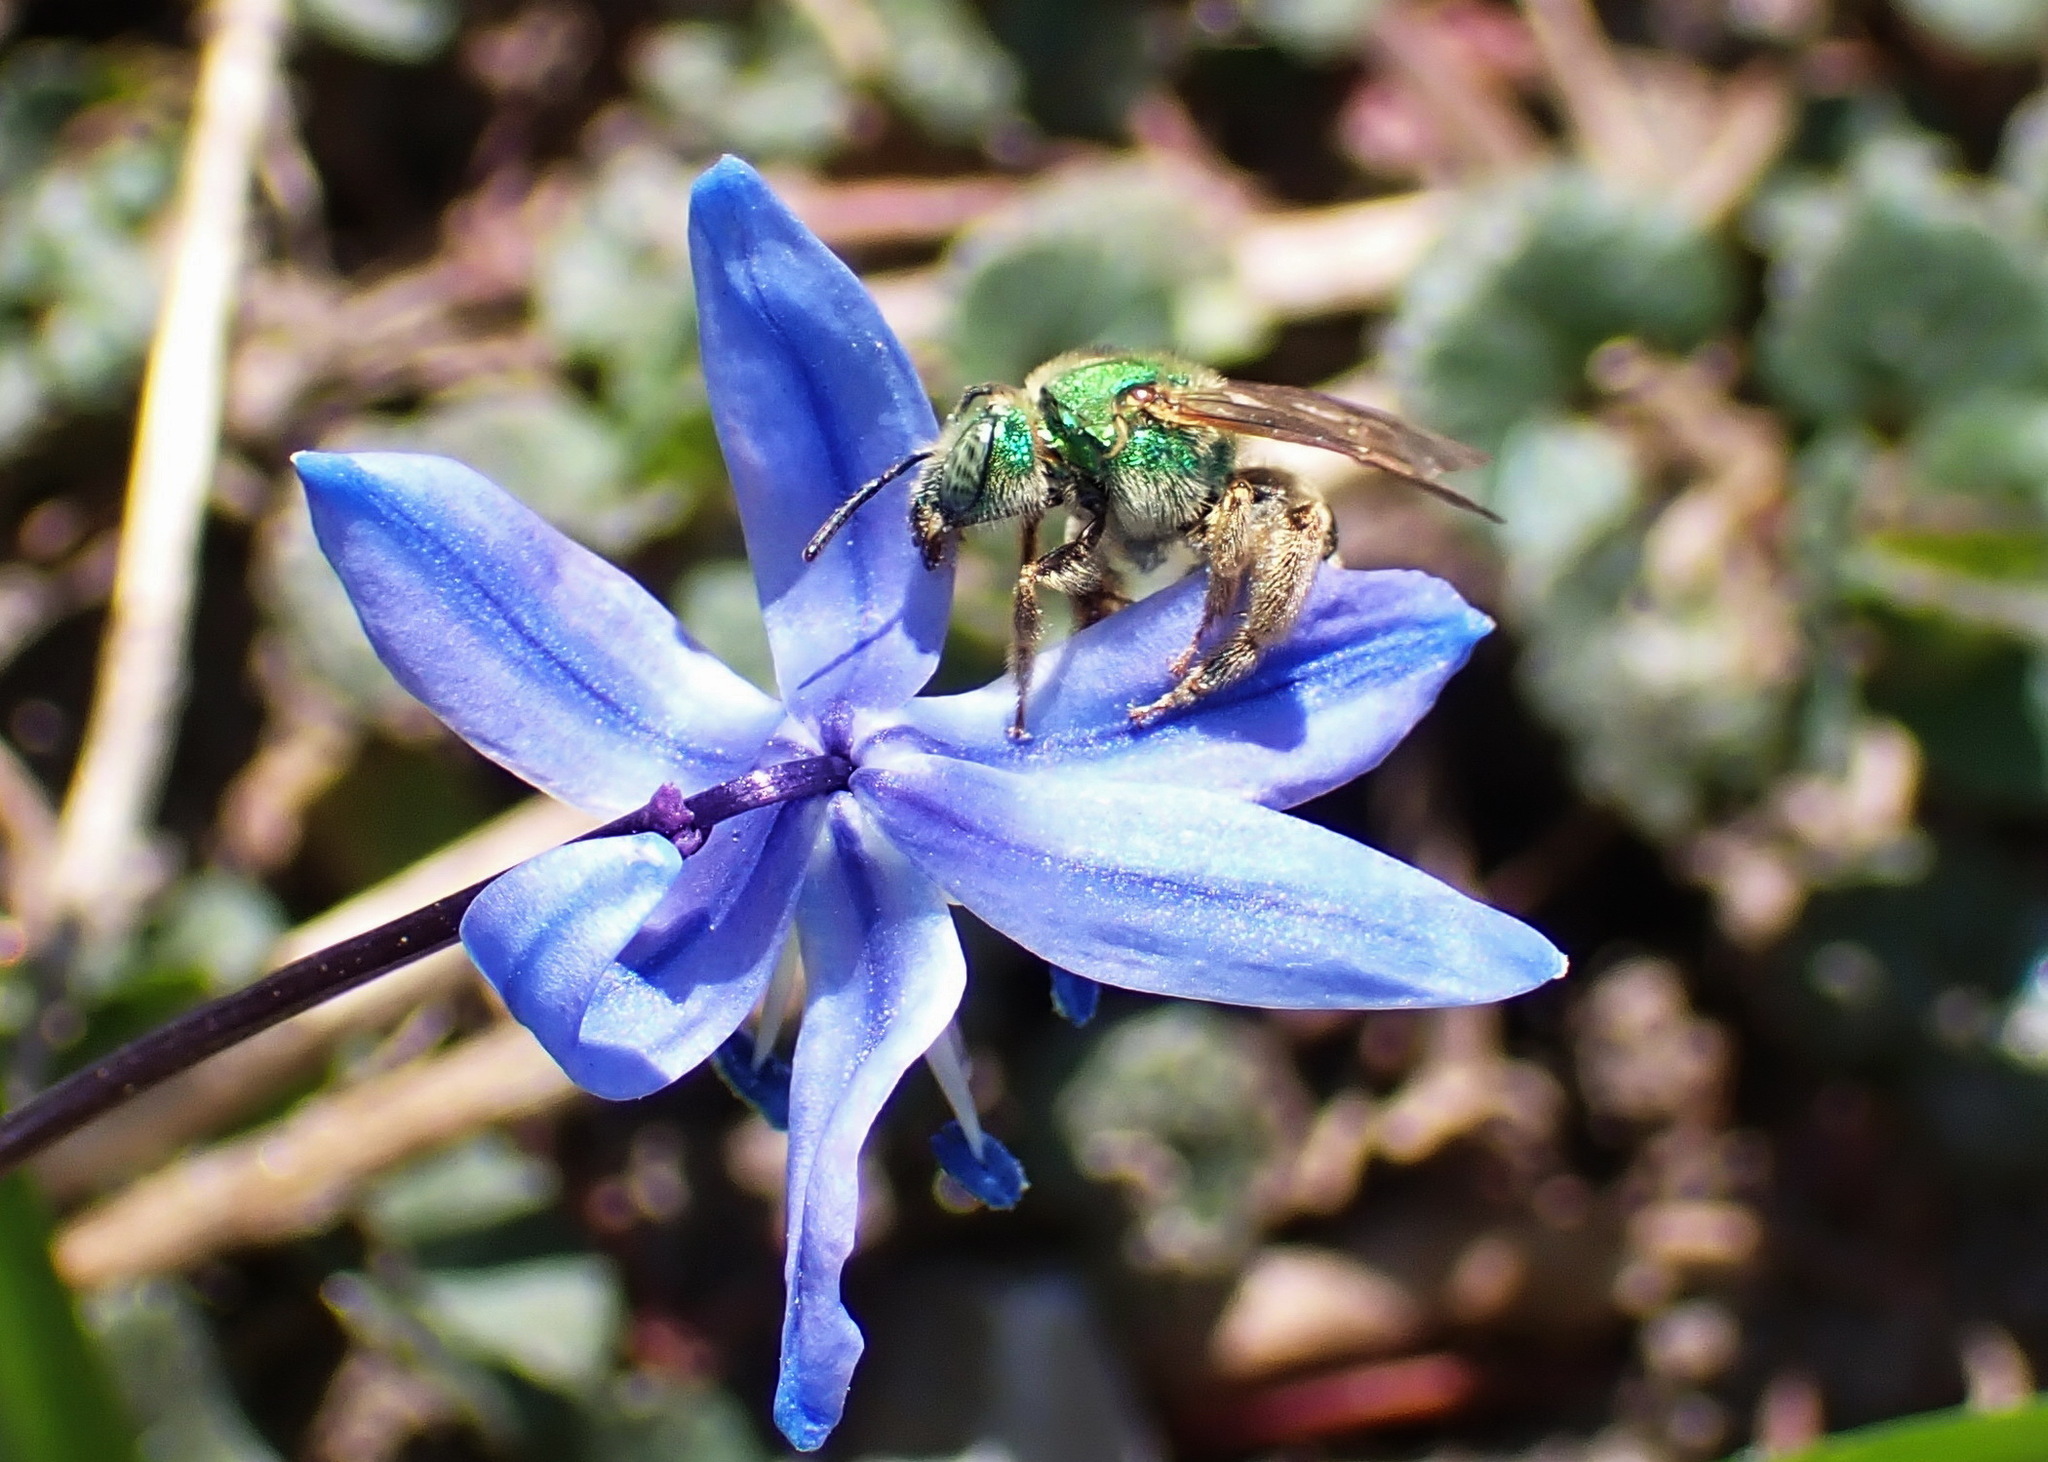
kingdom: Animalia
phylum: Arthropoda
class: Insecta
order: Hymenoptera
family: Halictidae
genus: Agapostemon
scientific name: Agapostemon virescens
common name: Bicolored striped sweat bee
